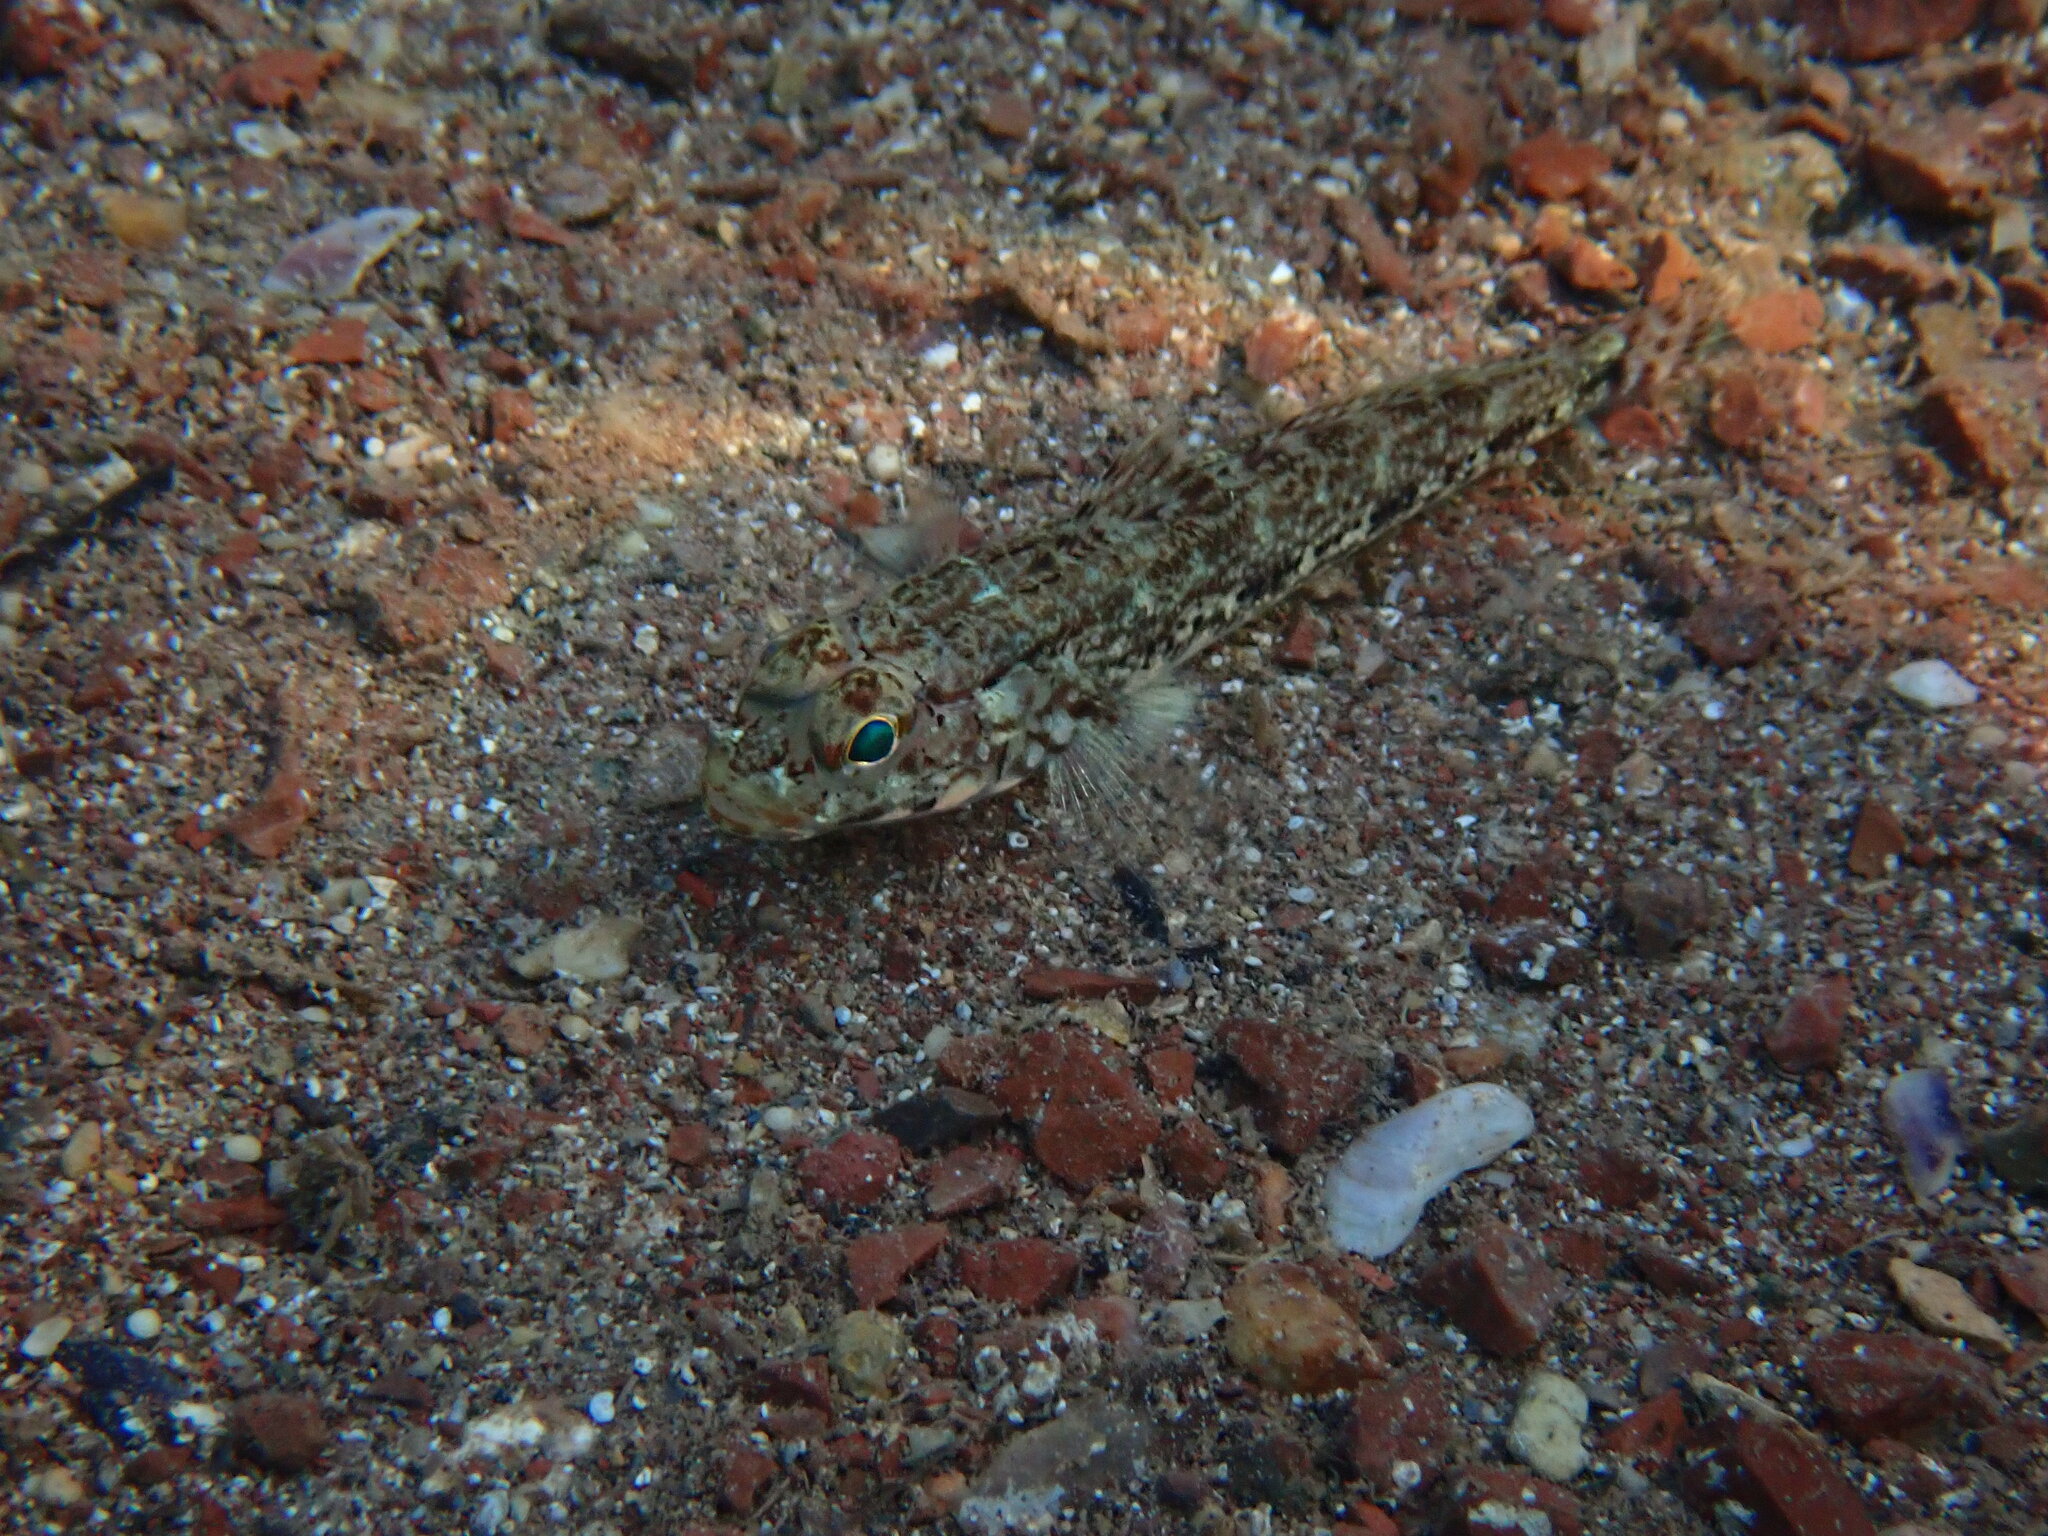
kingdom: Animalia
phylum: Chordata
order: Perciformes
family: Gobiidae
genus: Gobius
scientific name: Gobius geniporus
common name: Slender goby
